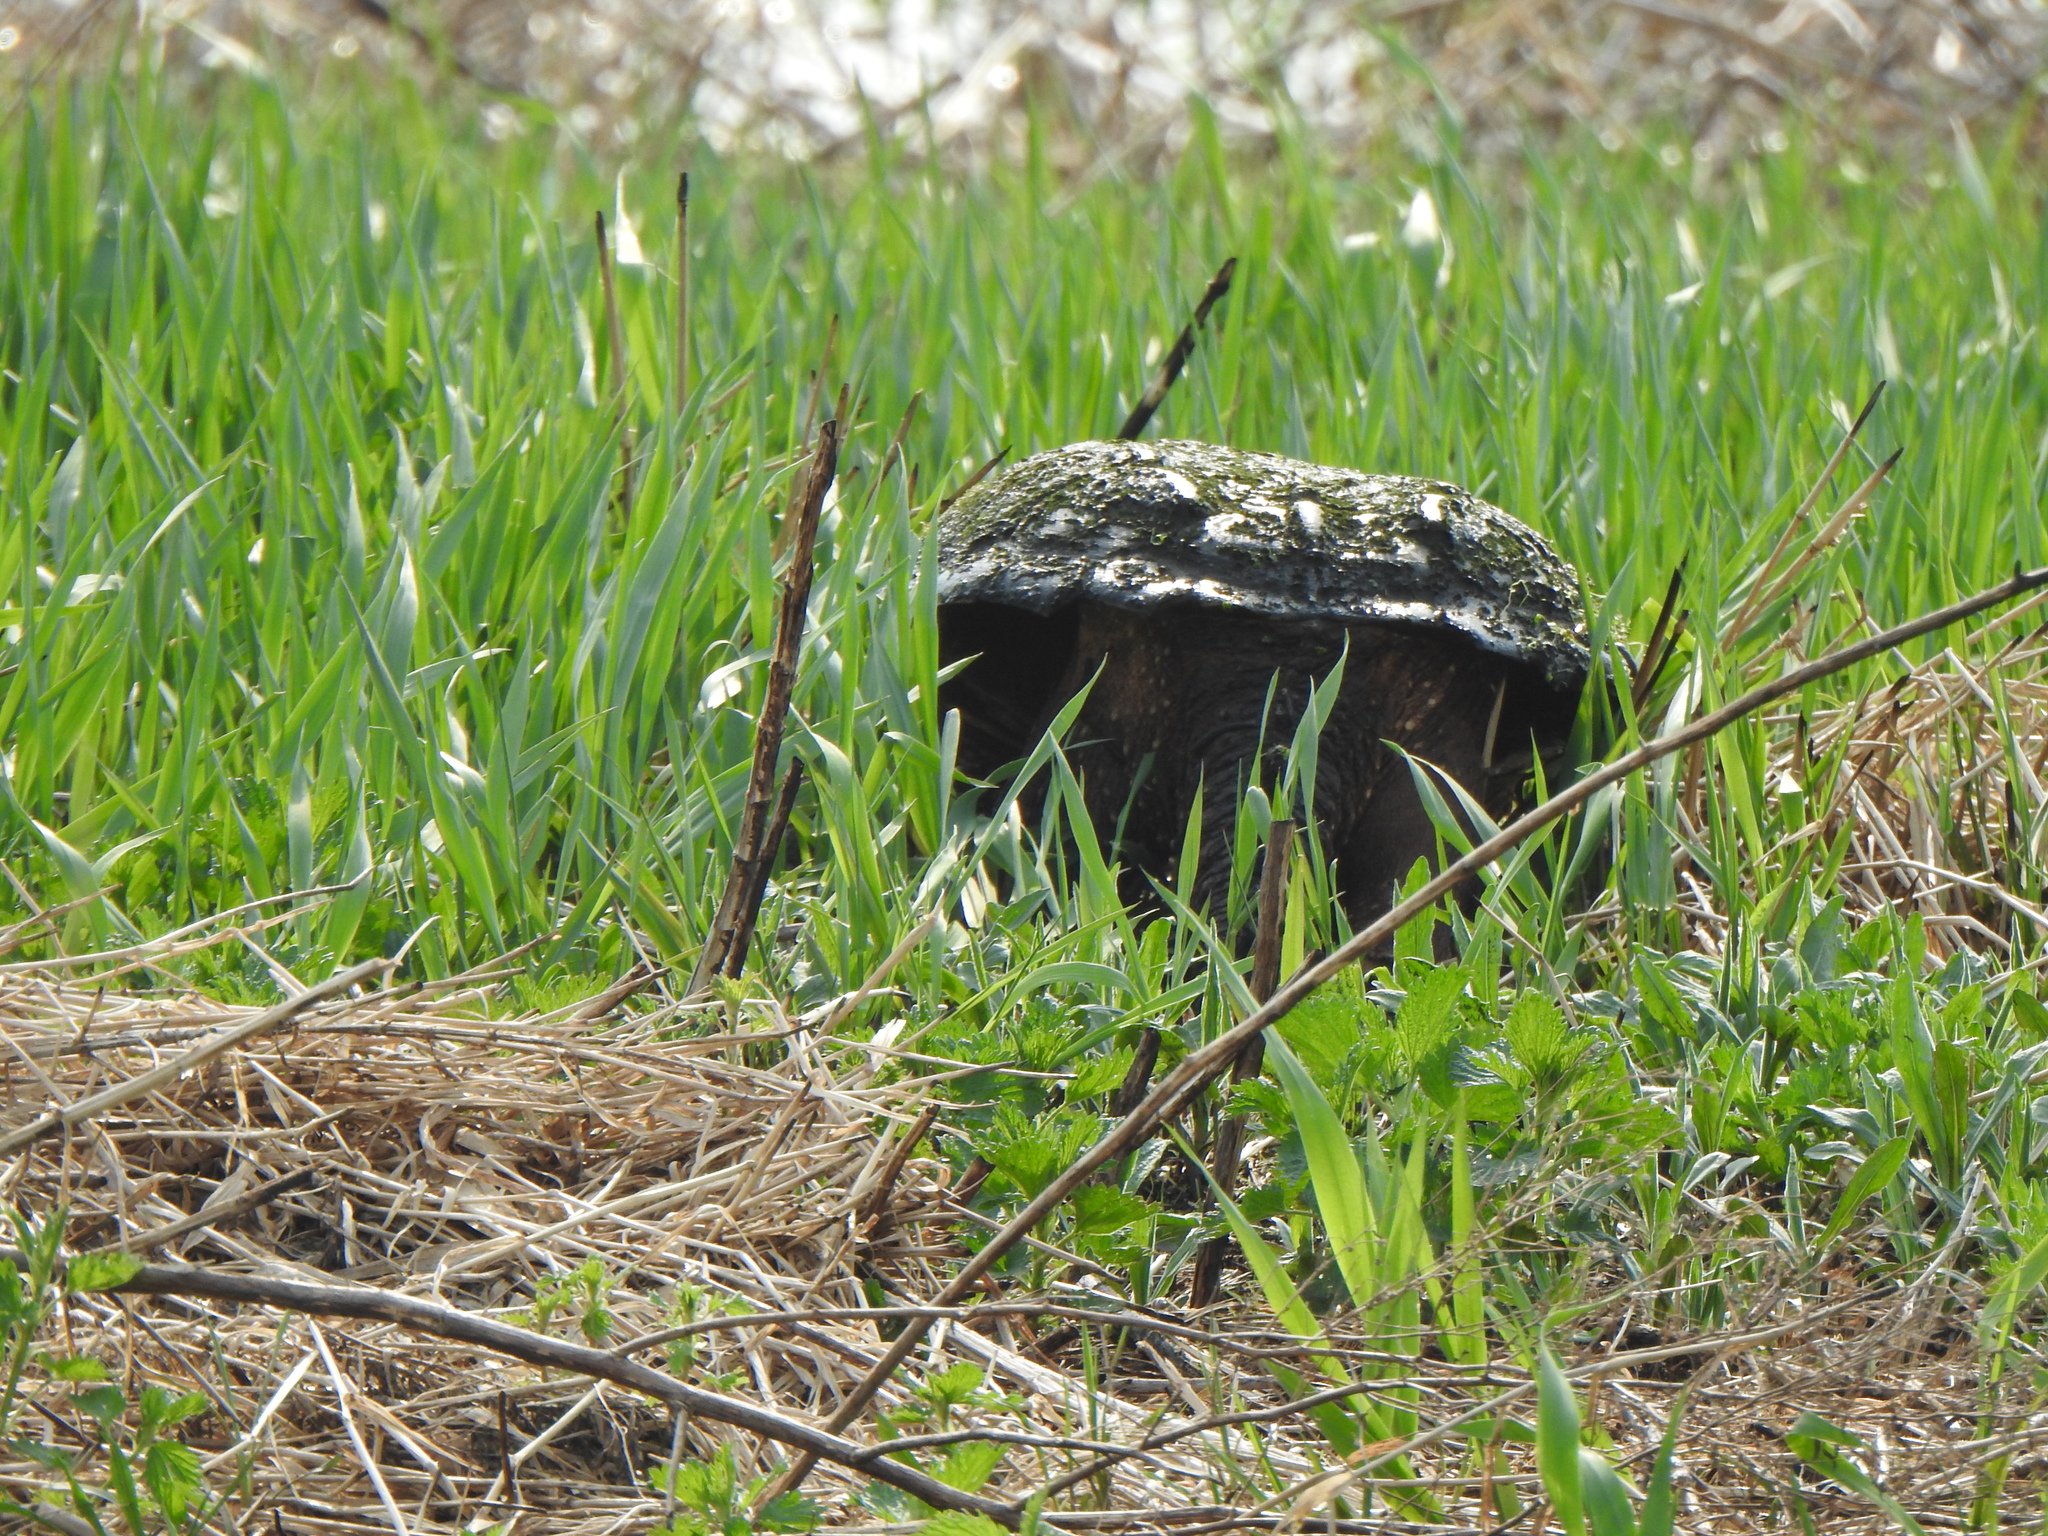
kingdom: Animalia
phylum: Chordata
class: Testudines
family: Chelydridae
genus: Chelydra
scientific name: Chelydra serpentina
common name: Common snapping turtle
